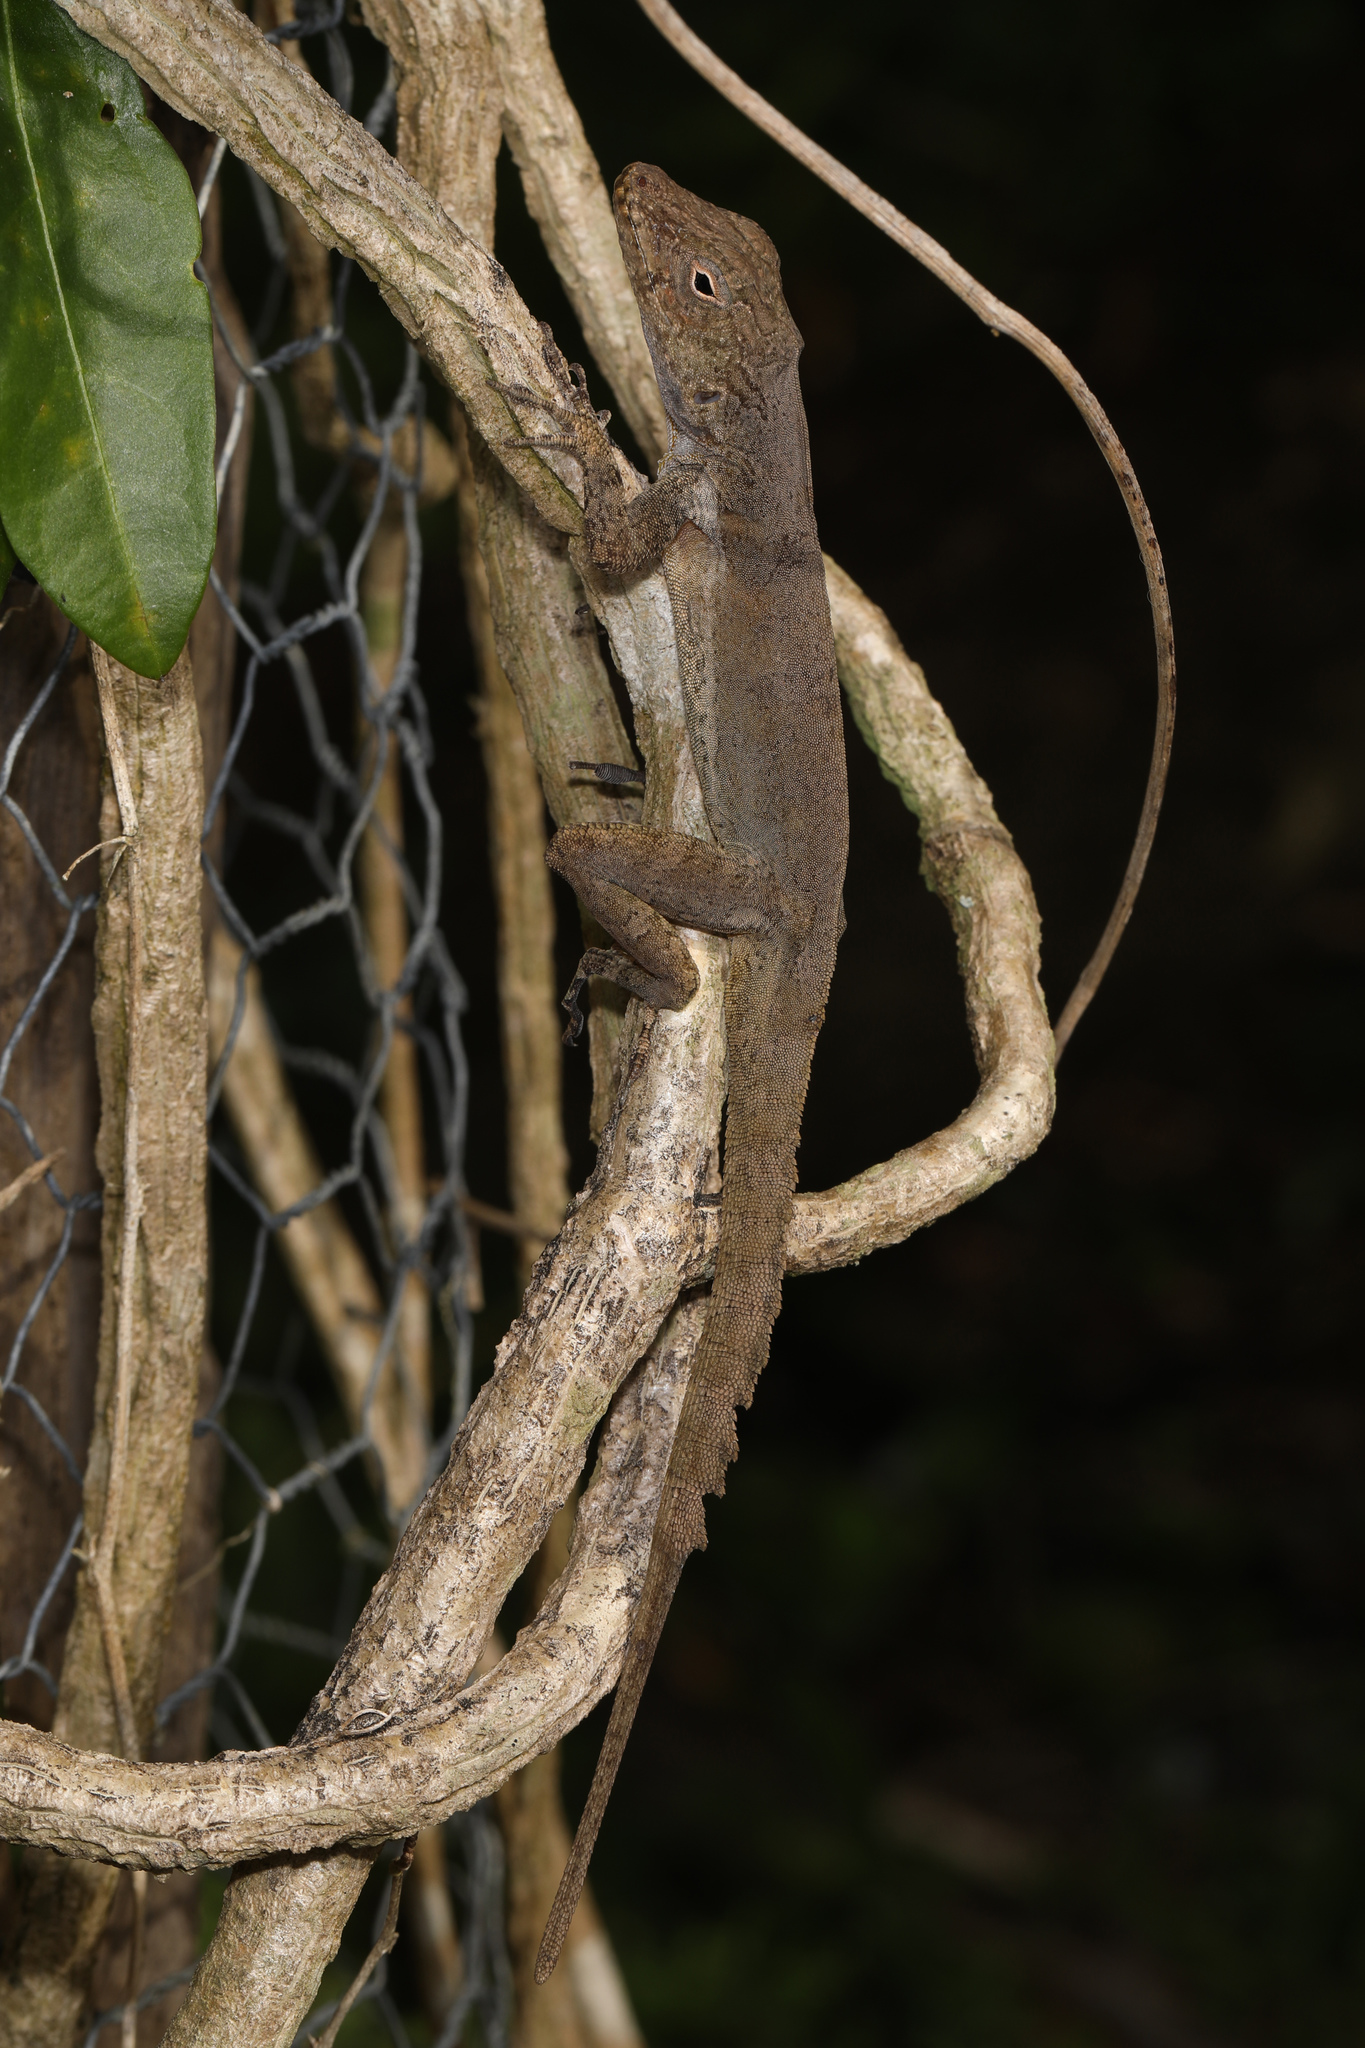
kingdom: Animalia
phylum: Chordata
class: Squamata
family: Dactyloidae
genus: Anolis
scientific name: Anolis cristatellus
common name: Crested anole
